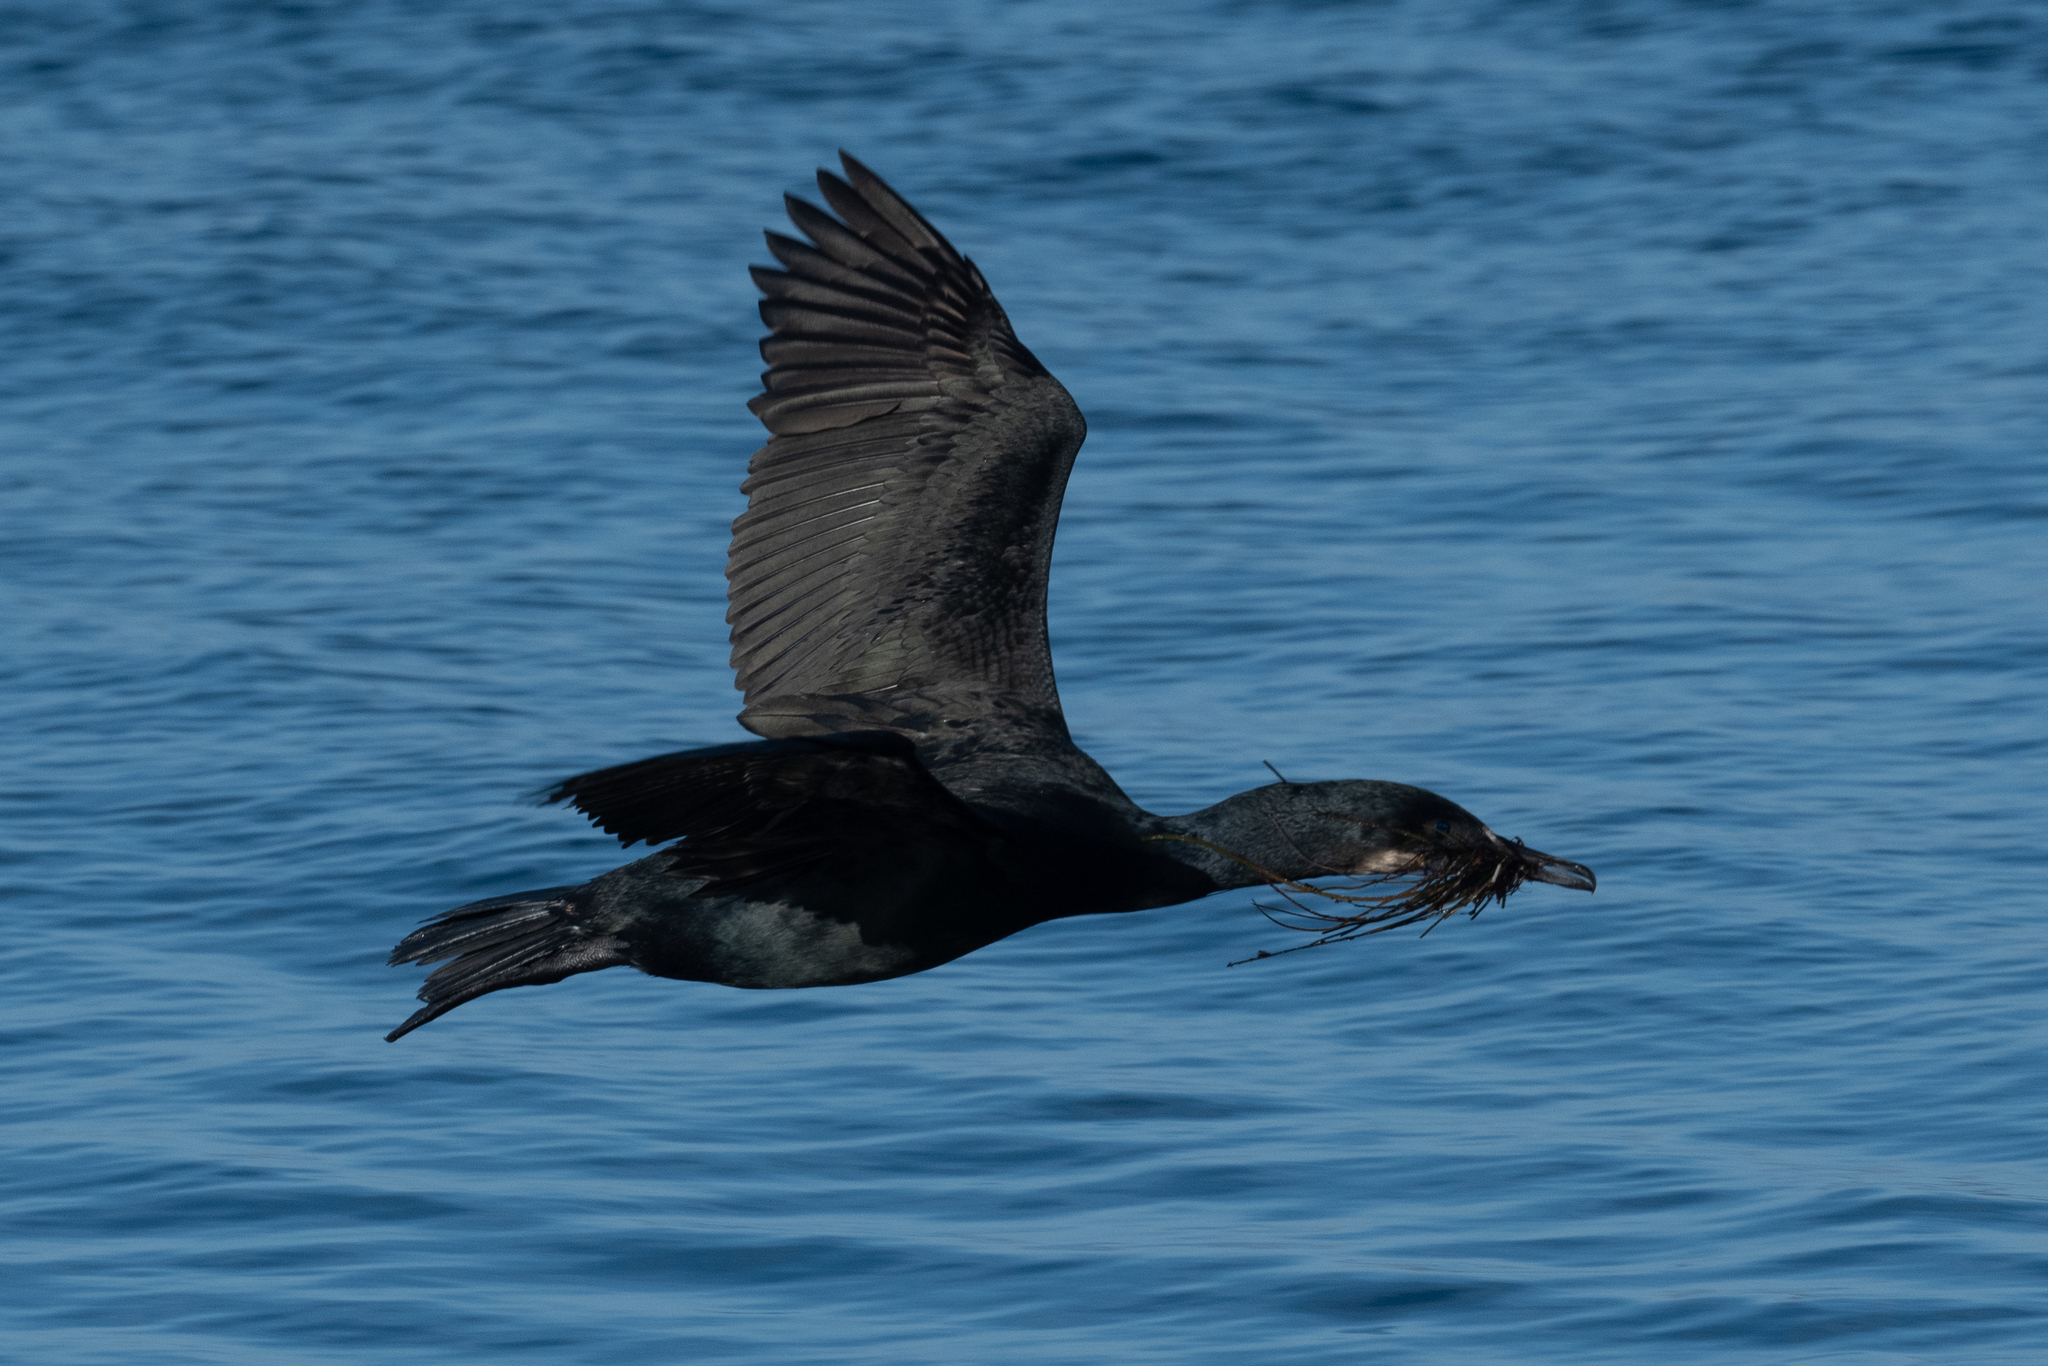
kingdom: Animalia
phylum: Chordata
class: Aves
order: Suliformes
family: Phalacrocoracidae
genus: Urile
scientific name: Urile penicillatus
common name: Brandt's cormorant
